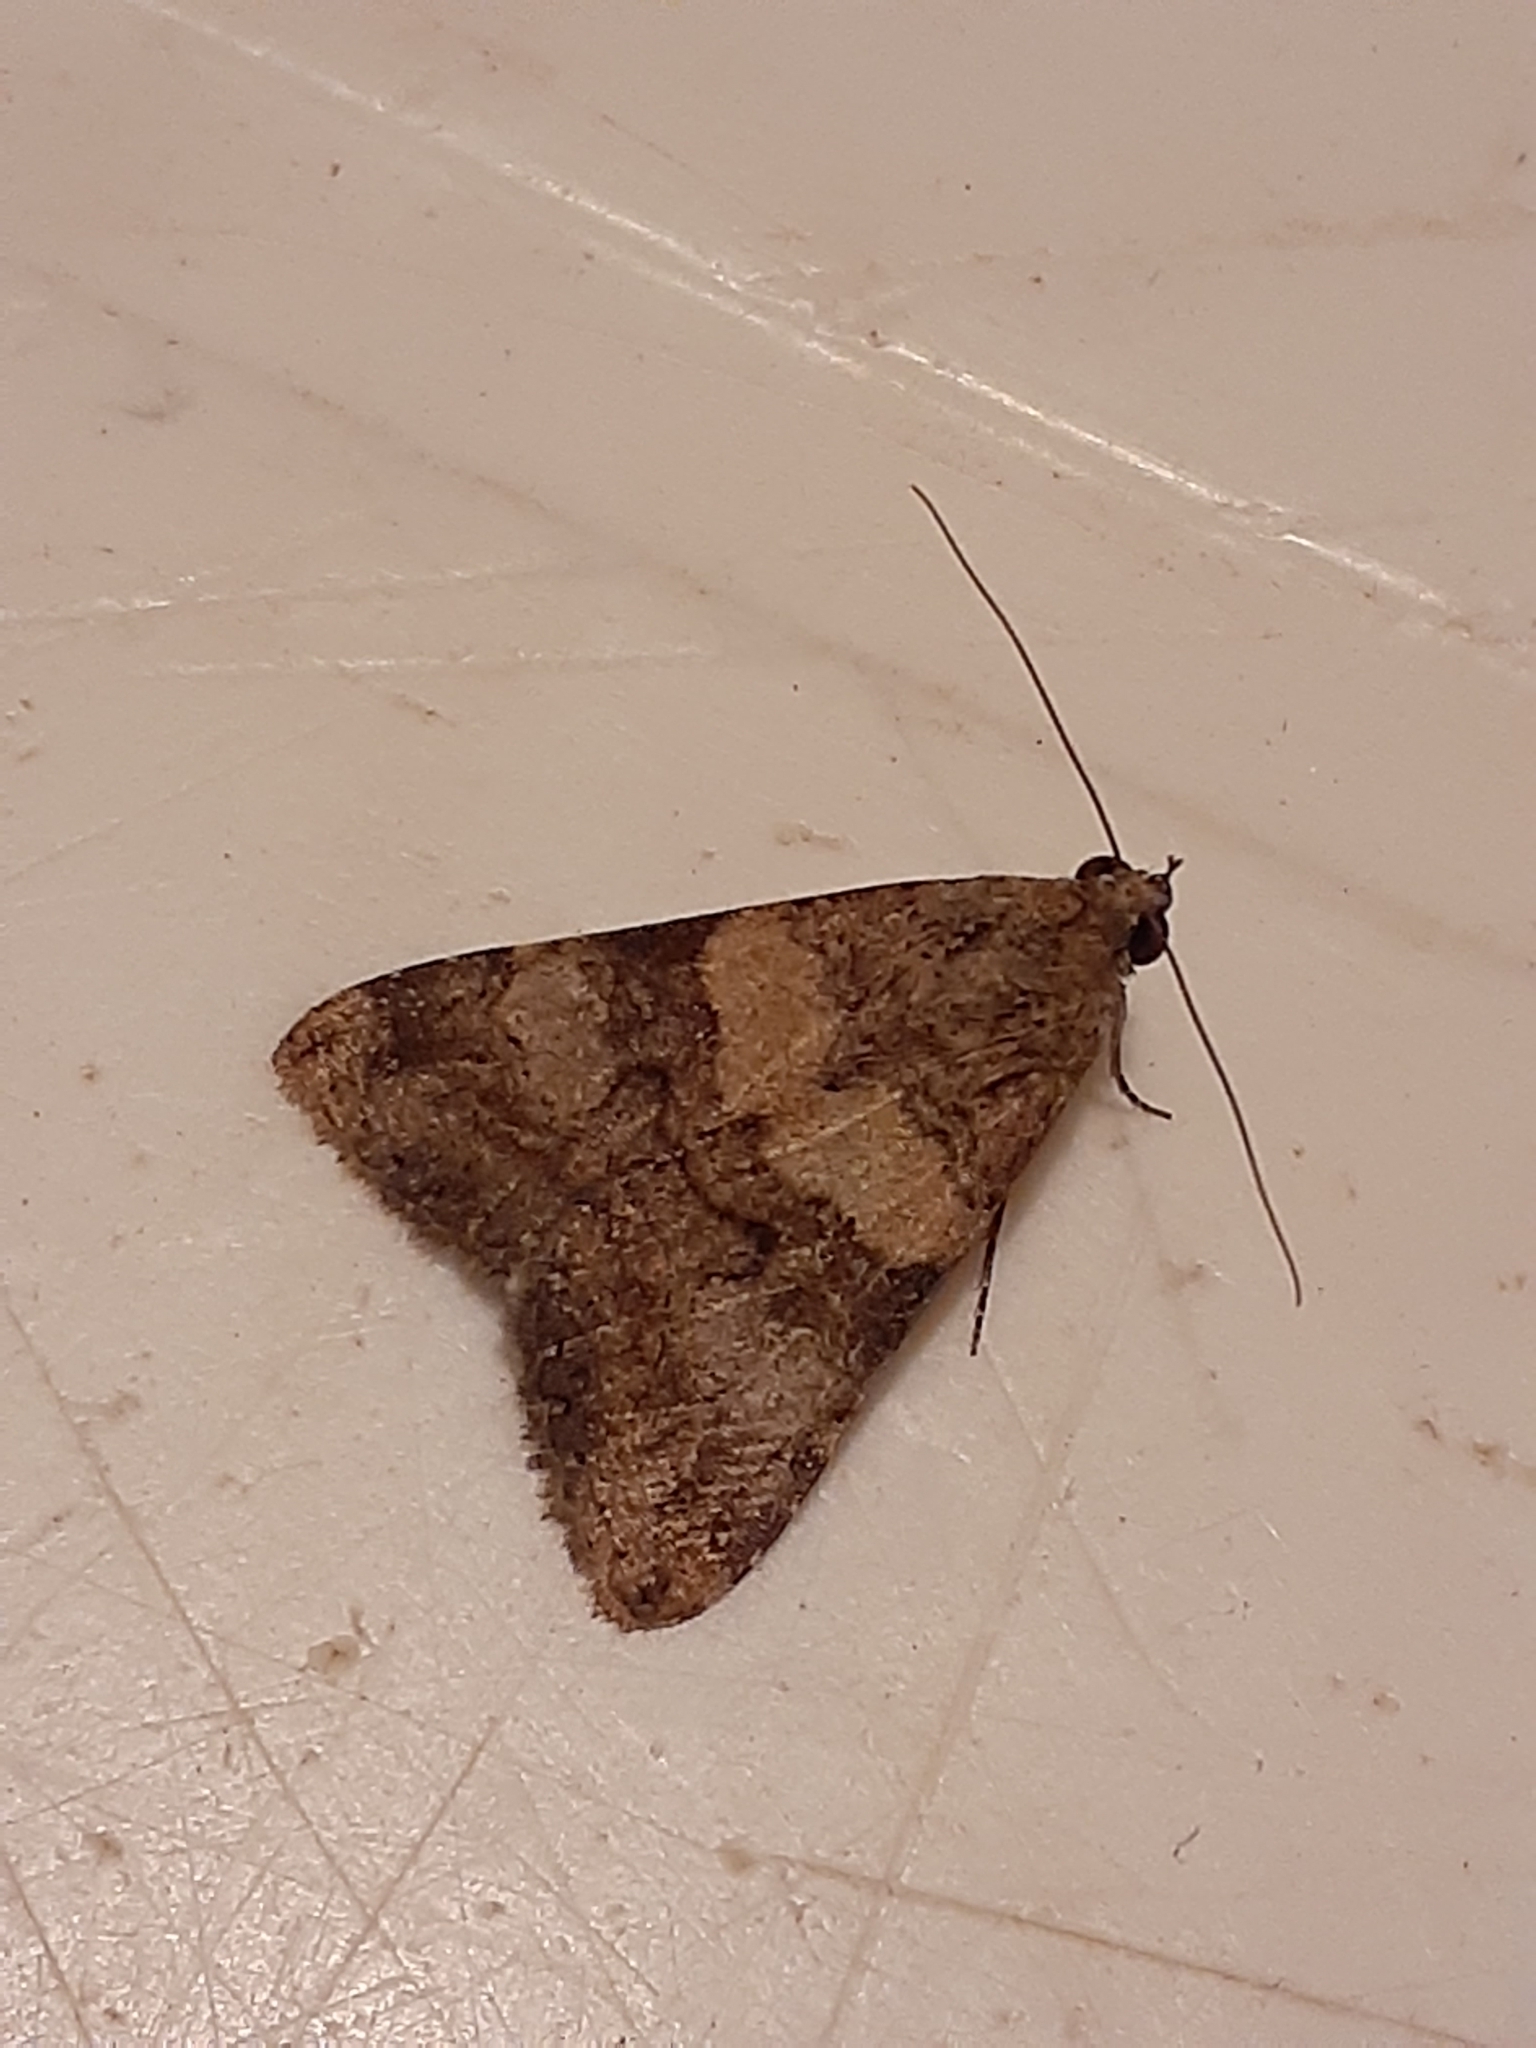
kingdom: Animalia
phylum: Arthropoda
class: Insecta
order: Lepidoptera
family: Erebidae
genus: Melipotis
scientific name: Melipotis trujillensis
